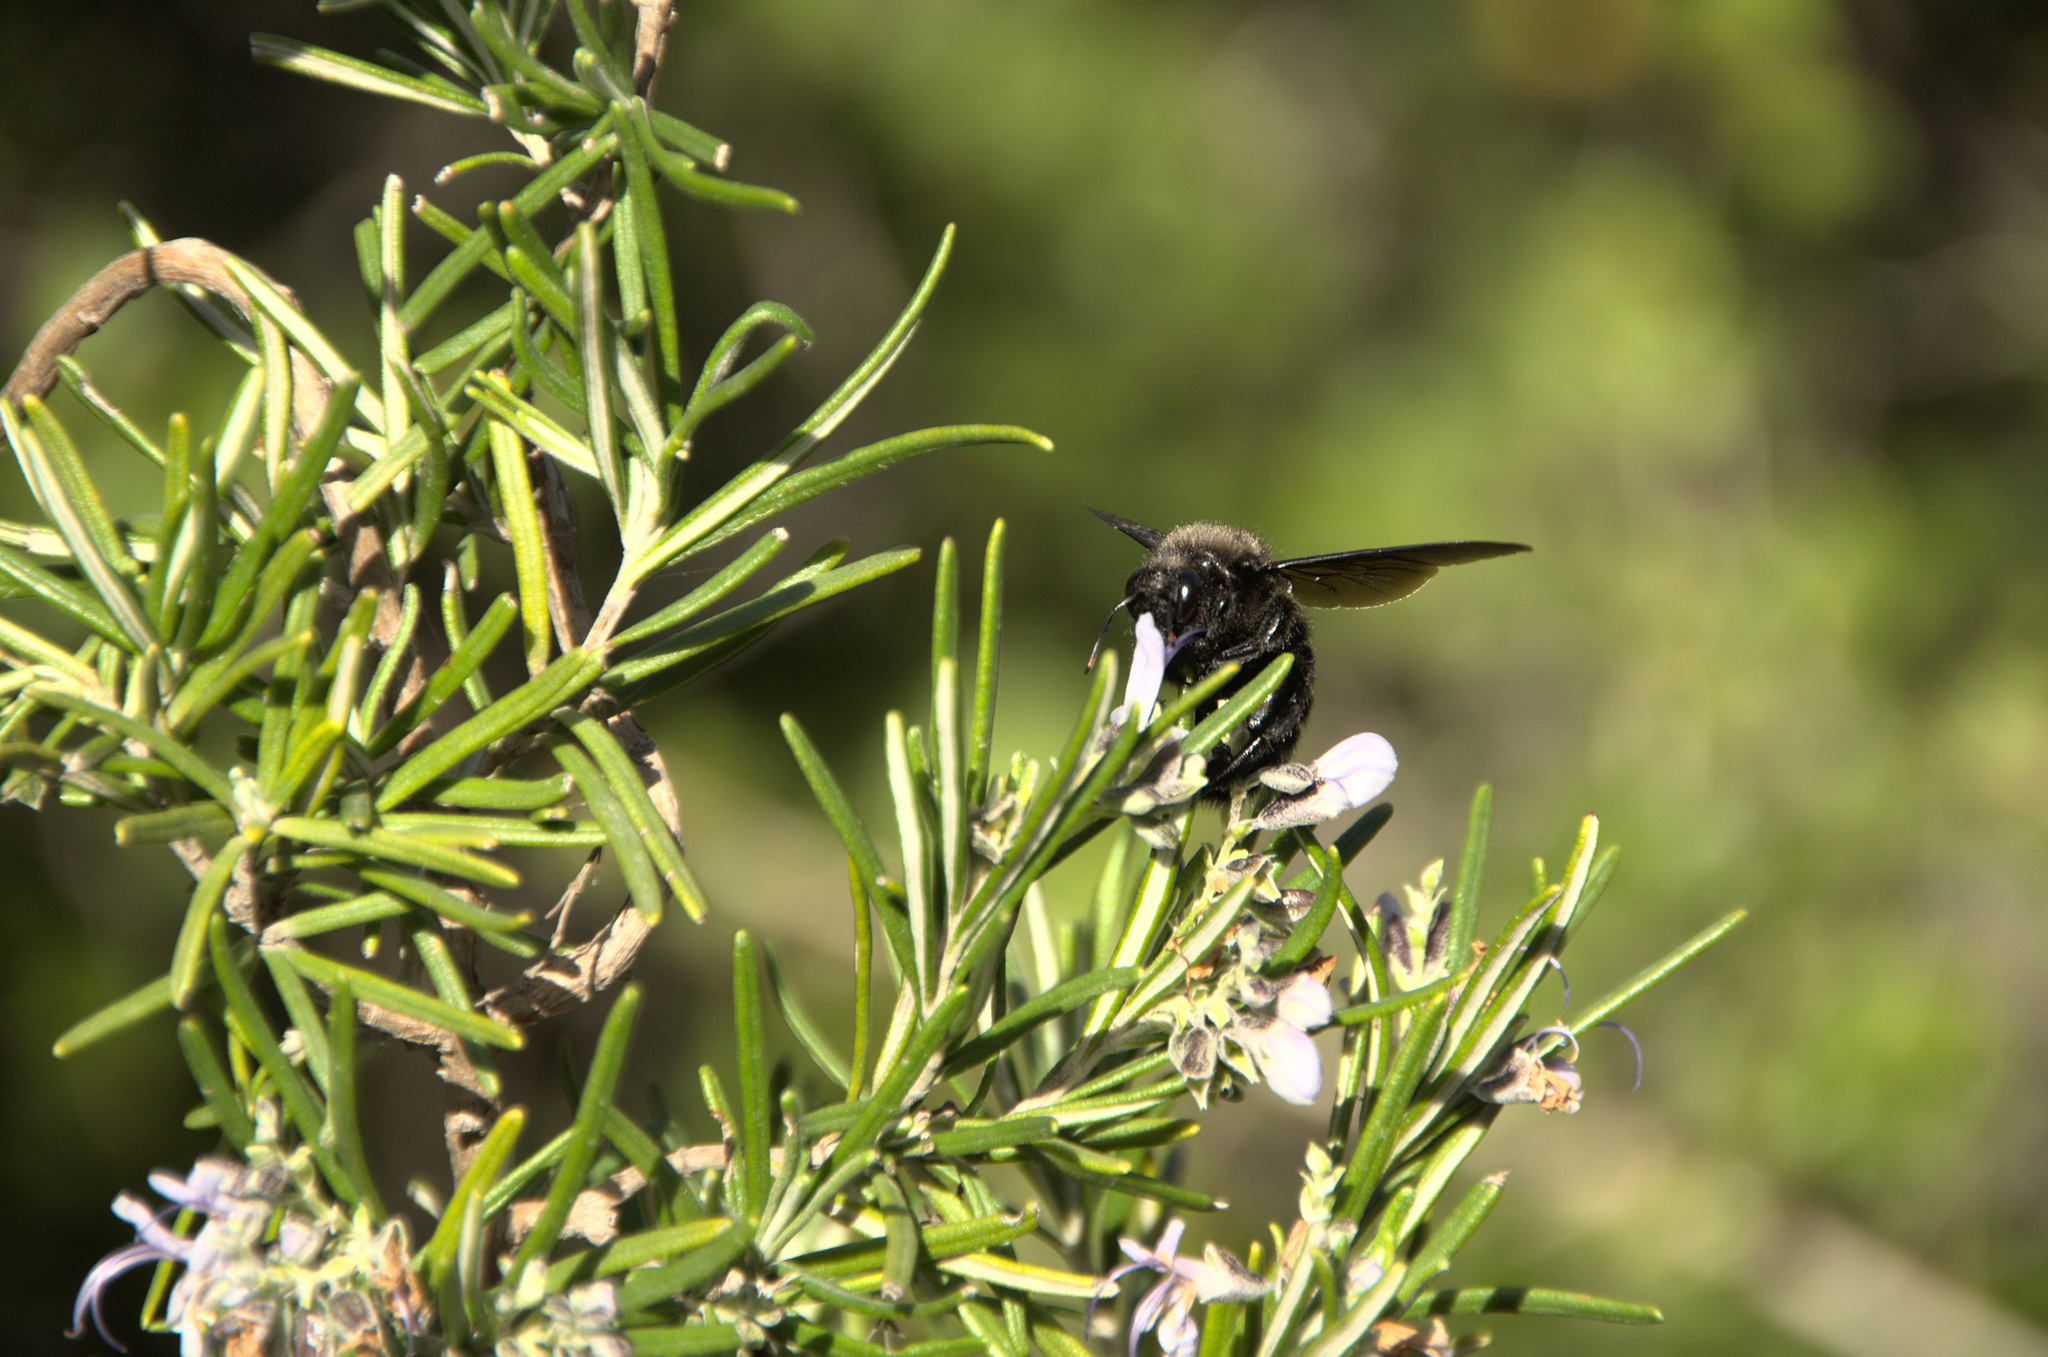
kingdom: Animalia
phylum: Arthropoda
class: Insecta
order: Hymenoptera
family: Apidae
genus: Xylocopa
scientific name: Xylocopa violacea
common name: Violet carpenter bee
